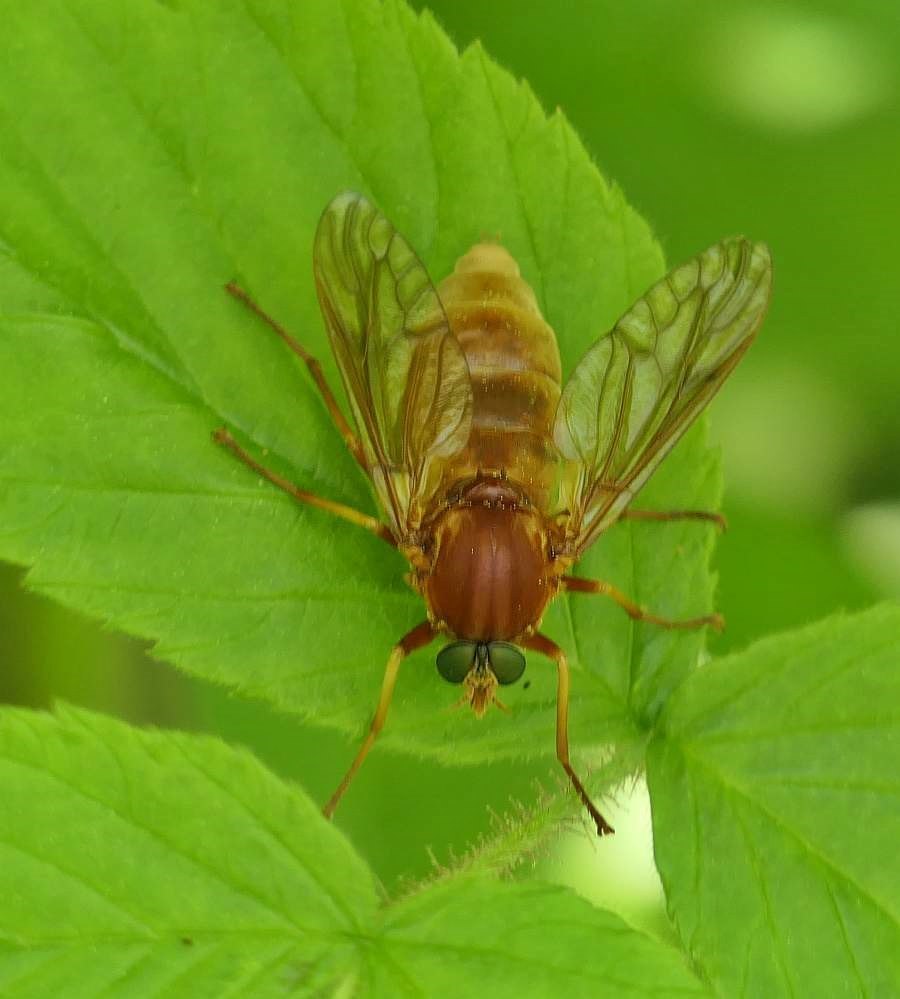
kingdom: Animalia
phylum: Arthropoda
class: Insecta
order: Diptera
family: Xylophagidae
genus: Coenomyia
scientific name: Coenomyia ferruginea
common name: Stink fly
